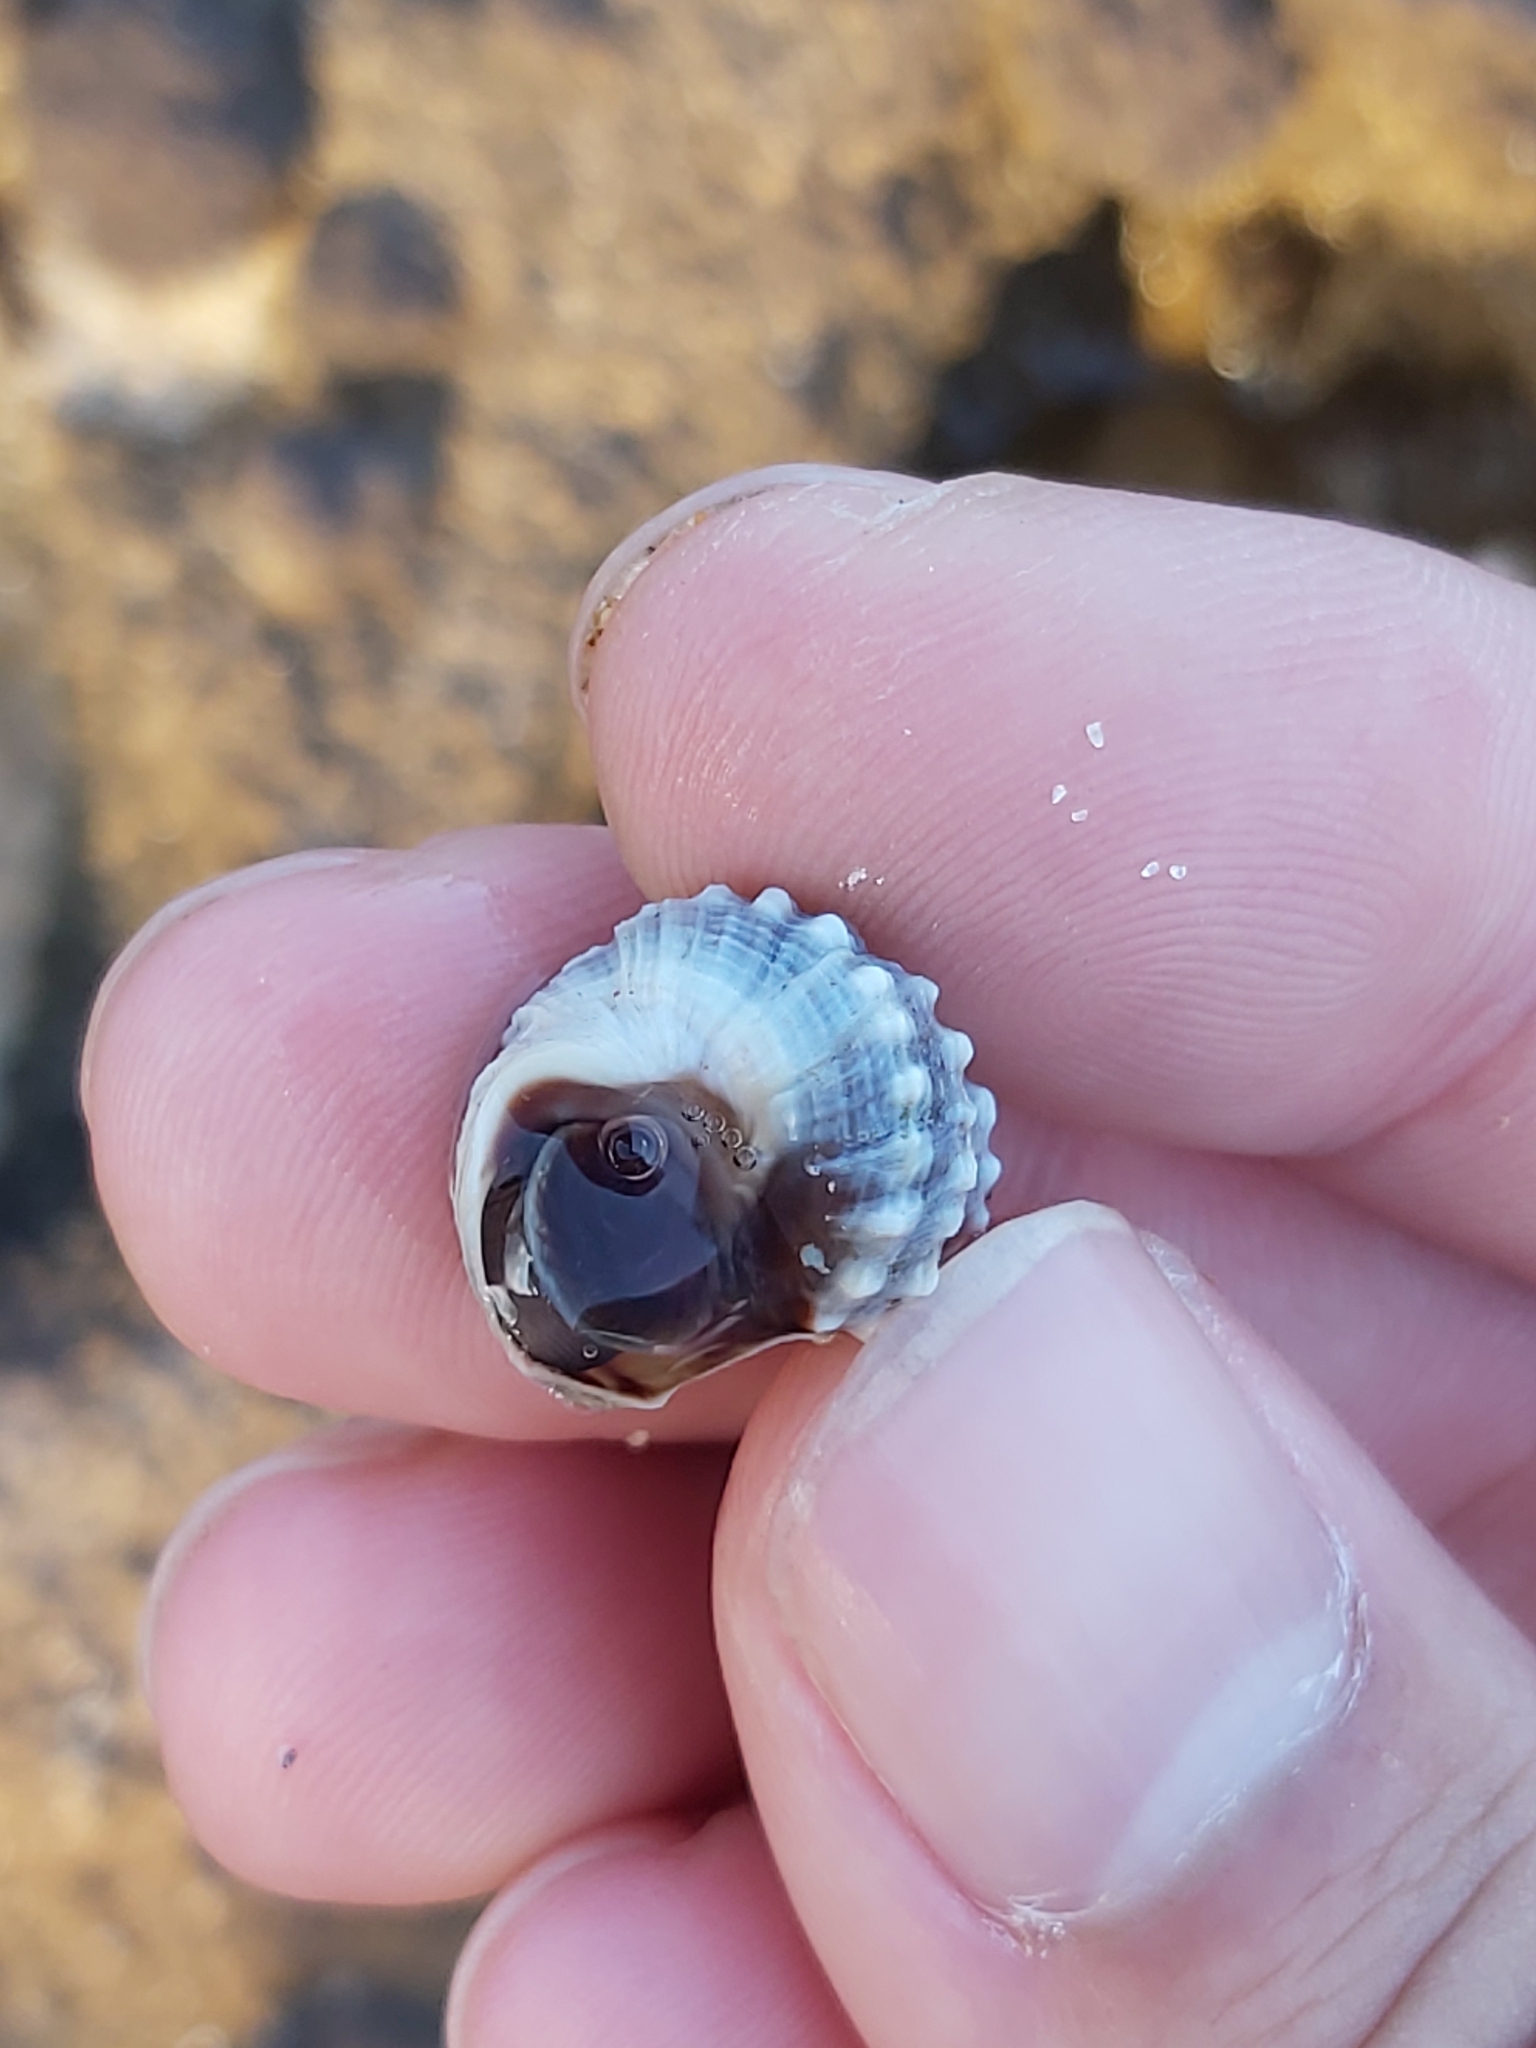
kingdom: Animalia
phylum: Mollusca
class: Gastropoda
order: Littorinimorpha
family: Littorinidae
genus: Nodilittorina
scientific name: Nodilittorina pyramidalis
